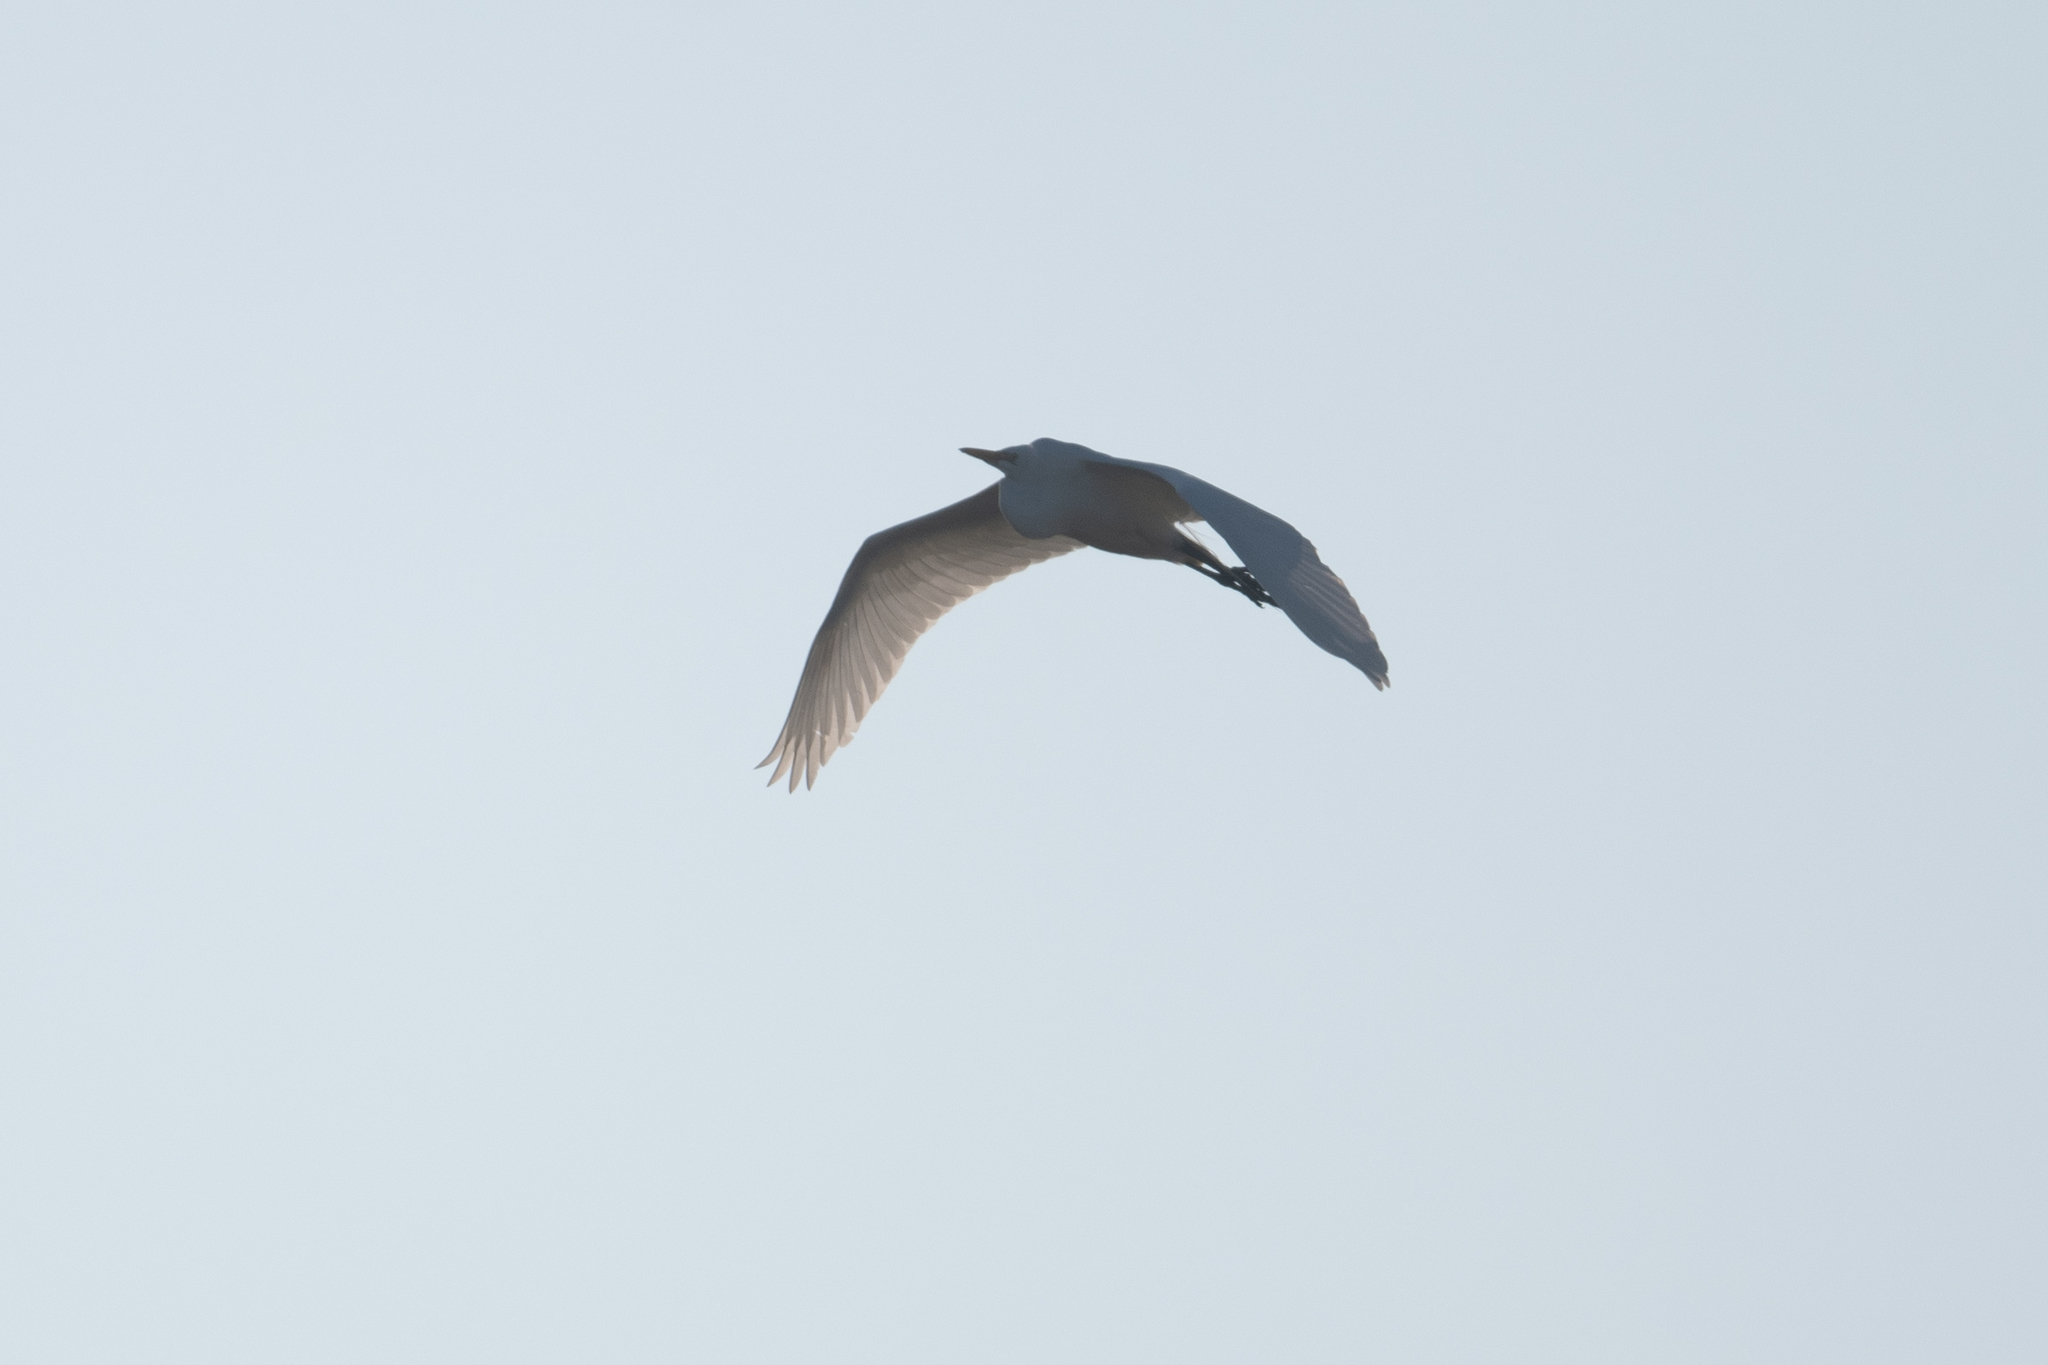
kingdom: Animalia
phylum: Chordata
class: Aves
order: Pelecaniformes
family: Ardeidae
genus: Ardea
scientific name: Ardea alba
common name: Great egret
